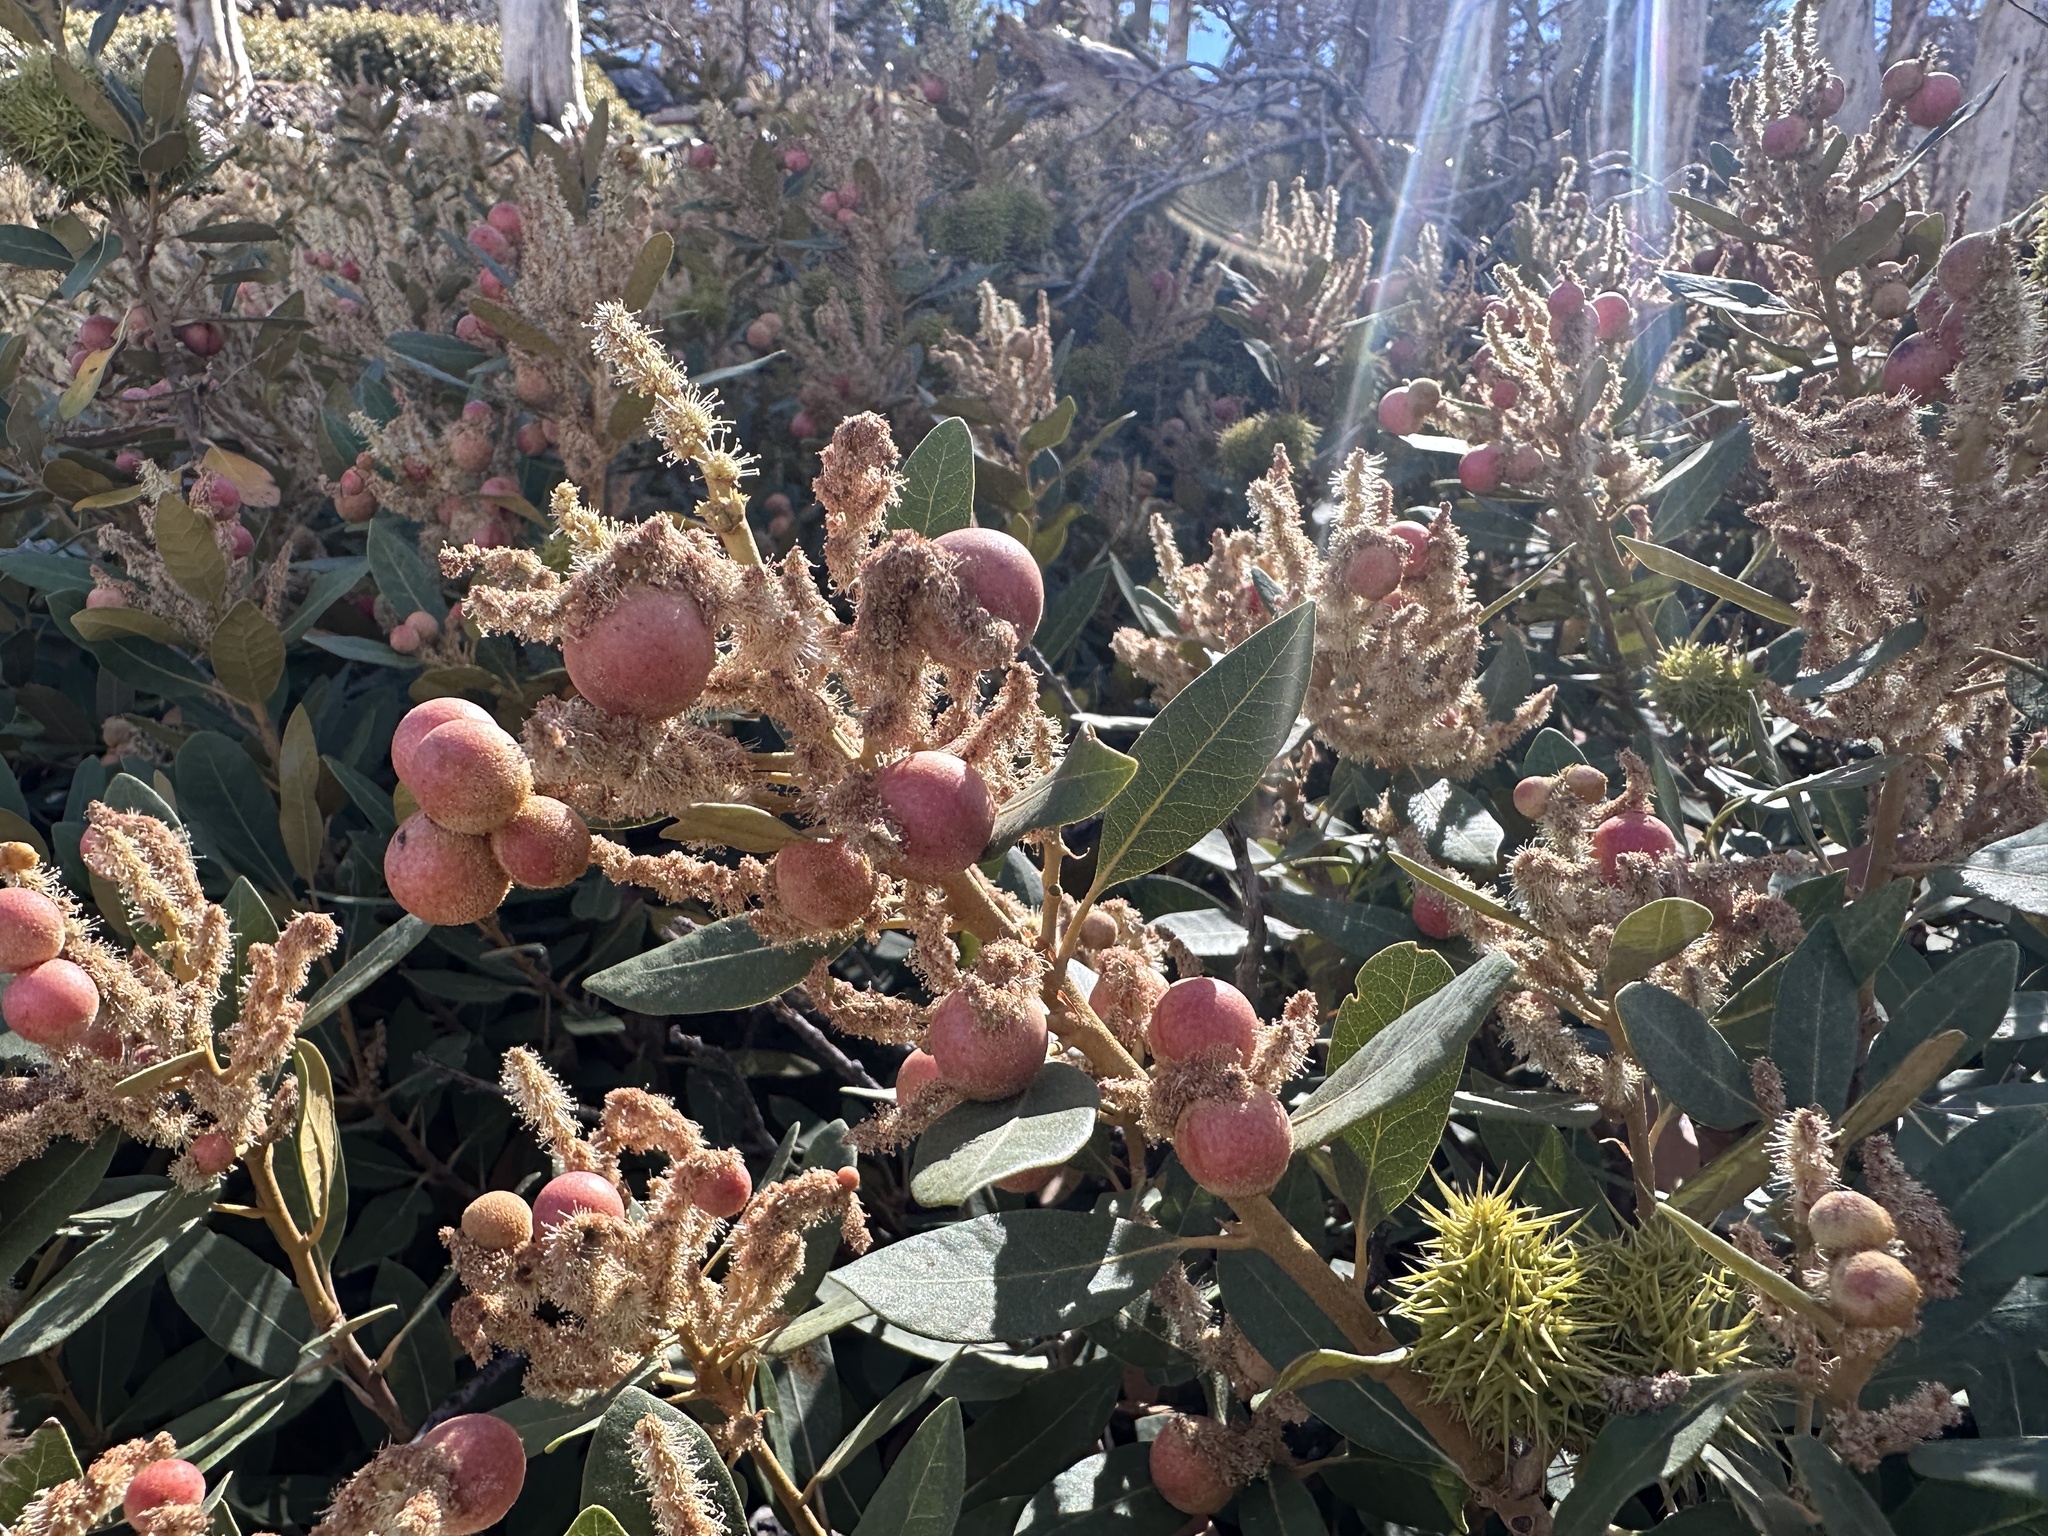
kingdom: Plantae
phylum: Tracheophyta
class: Magnoliopsida
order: Fagales
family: Fagaceae
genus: Chrysolepis
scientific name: Chrysolepis sempervirens
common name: Bush chinquapin
